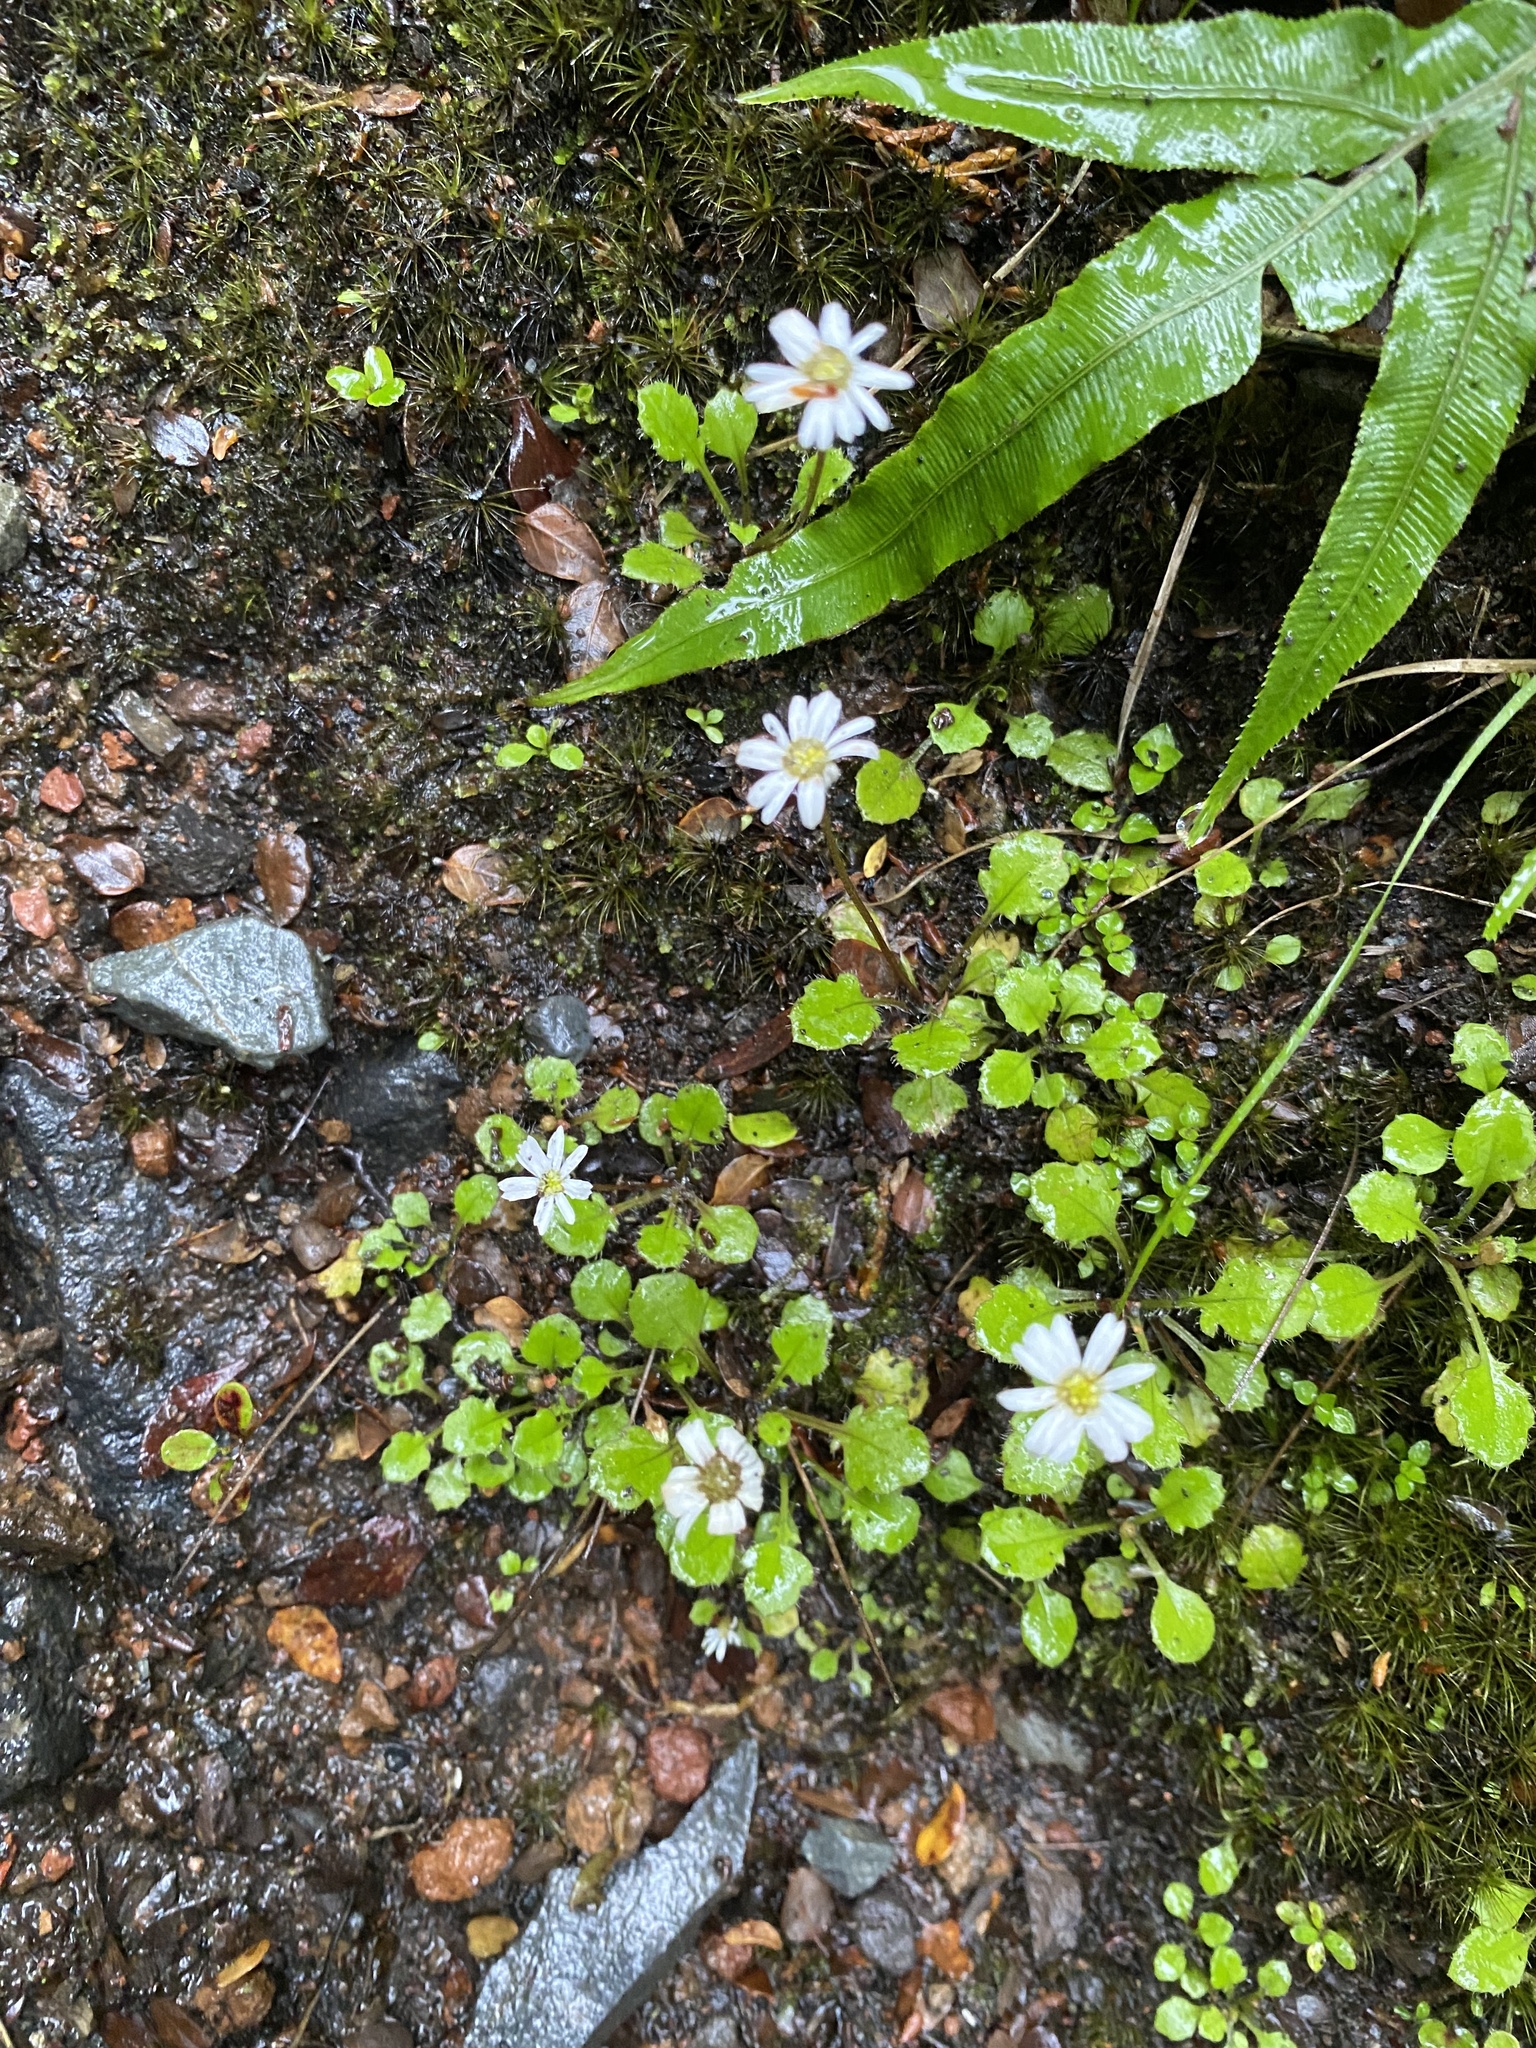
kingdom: Plantae
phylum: Tracheophyta
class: Magnoliopsida
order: Asterales
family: Asteraceae
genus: Lagenophora
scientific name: Lagenophora pumila
